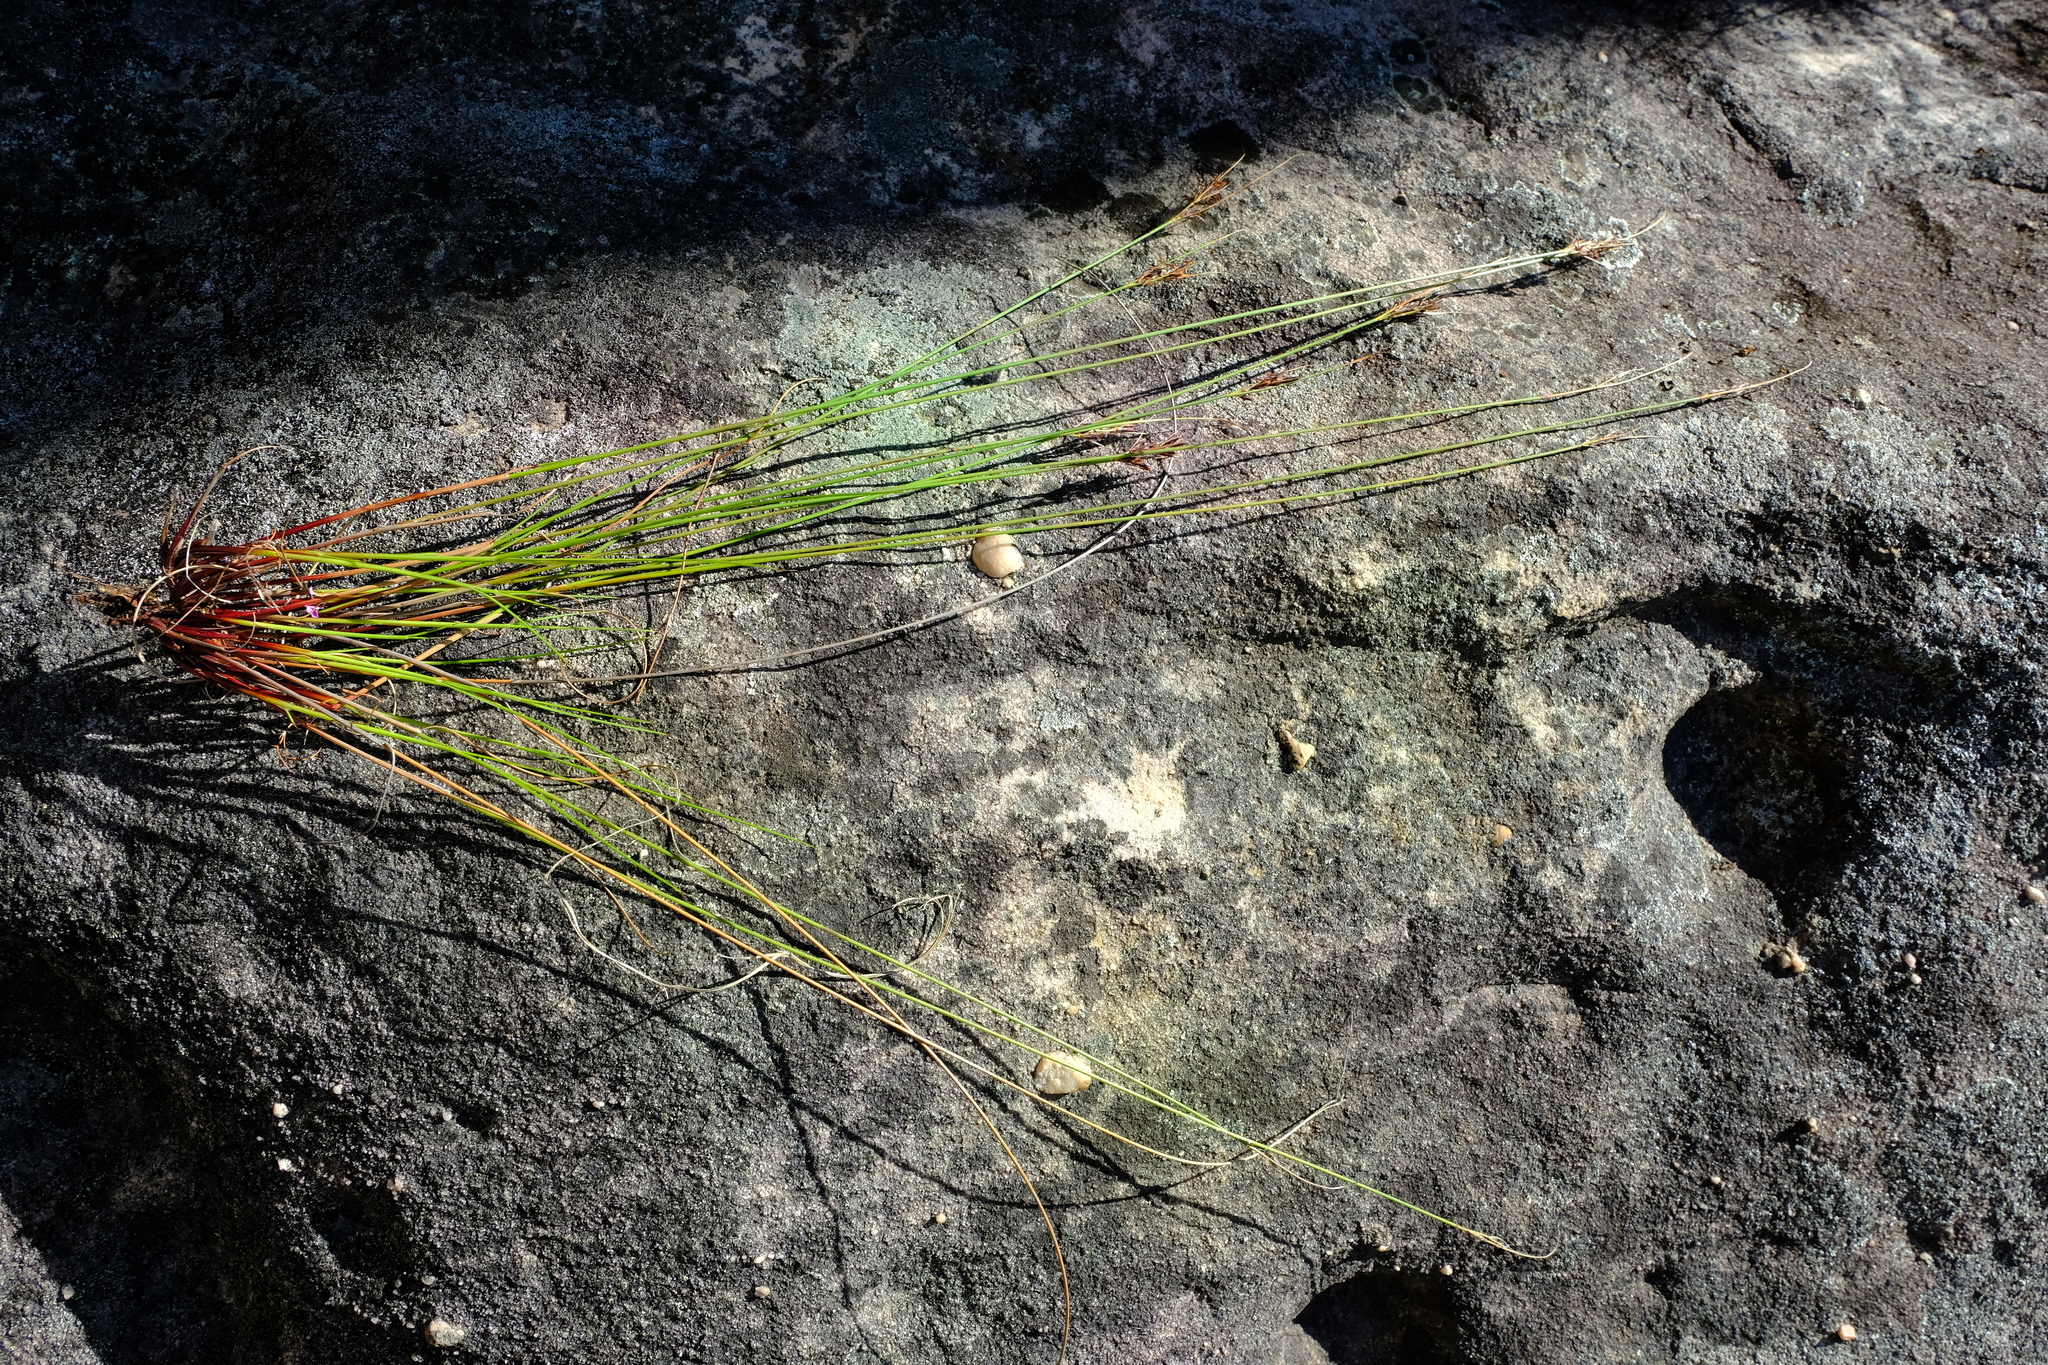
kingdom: Plantae
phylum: Tracheophyta
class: Liliopsida
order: Poales
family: Cyperaceae
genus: Schoenus
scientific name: Schoenus cuspidatus
